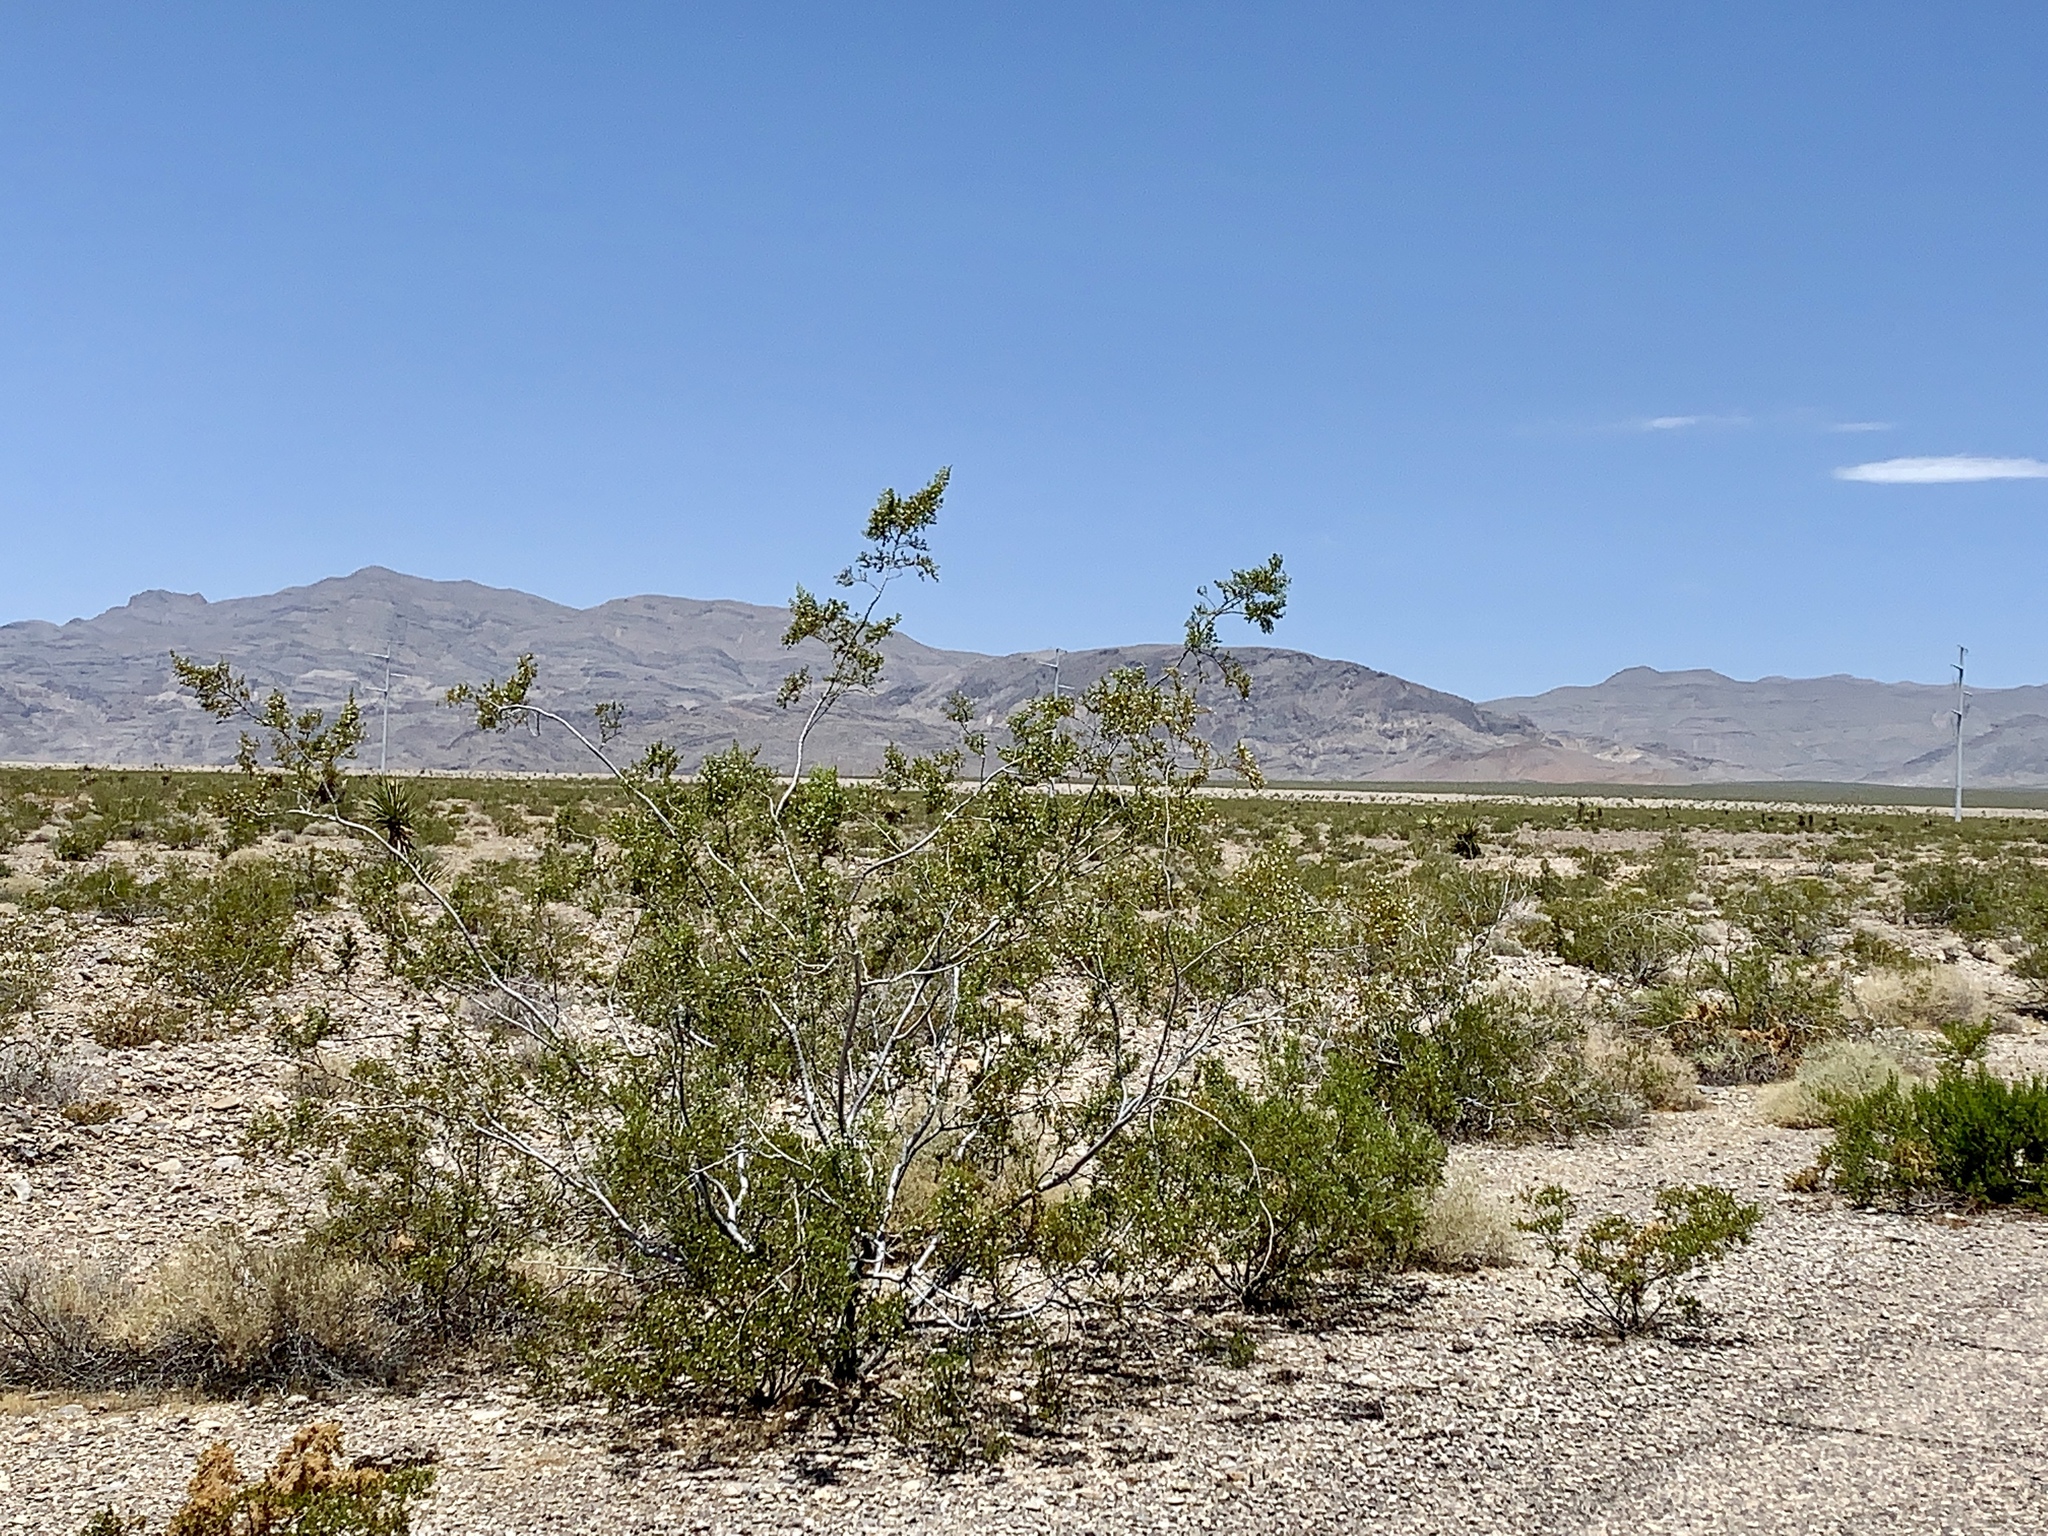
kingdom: Plantae
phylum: Tracheophyta
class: Magnoliopsida
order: Zygophyllales
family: Zygophyllaceae
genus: Larrea
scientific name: Larrea tridentata
